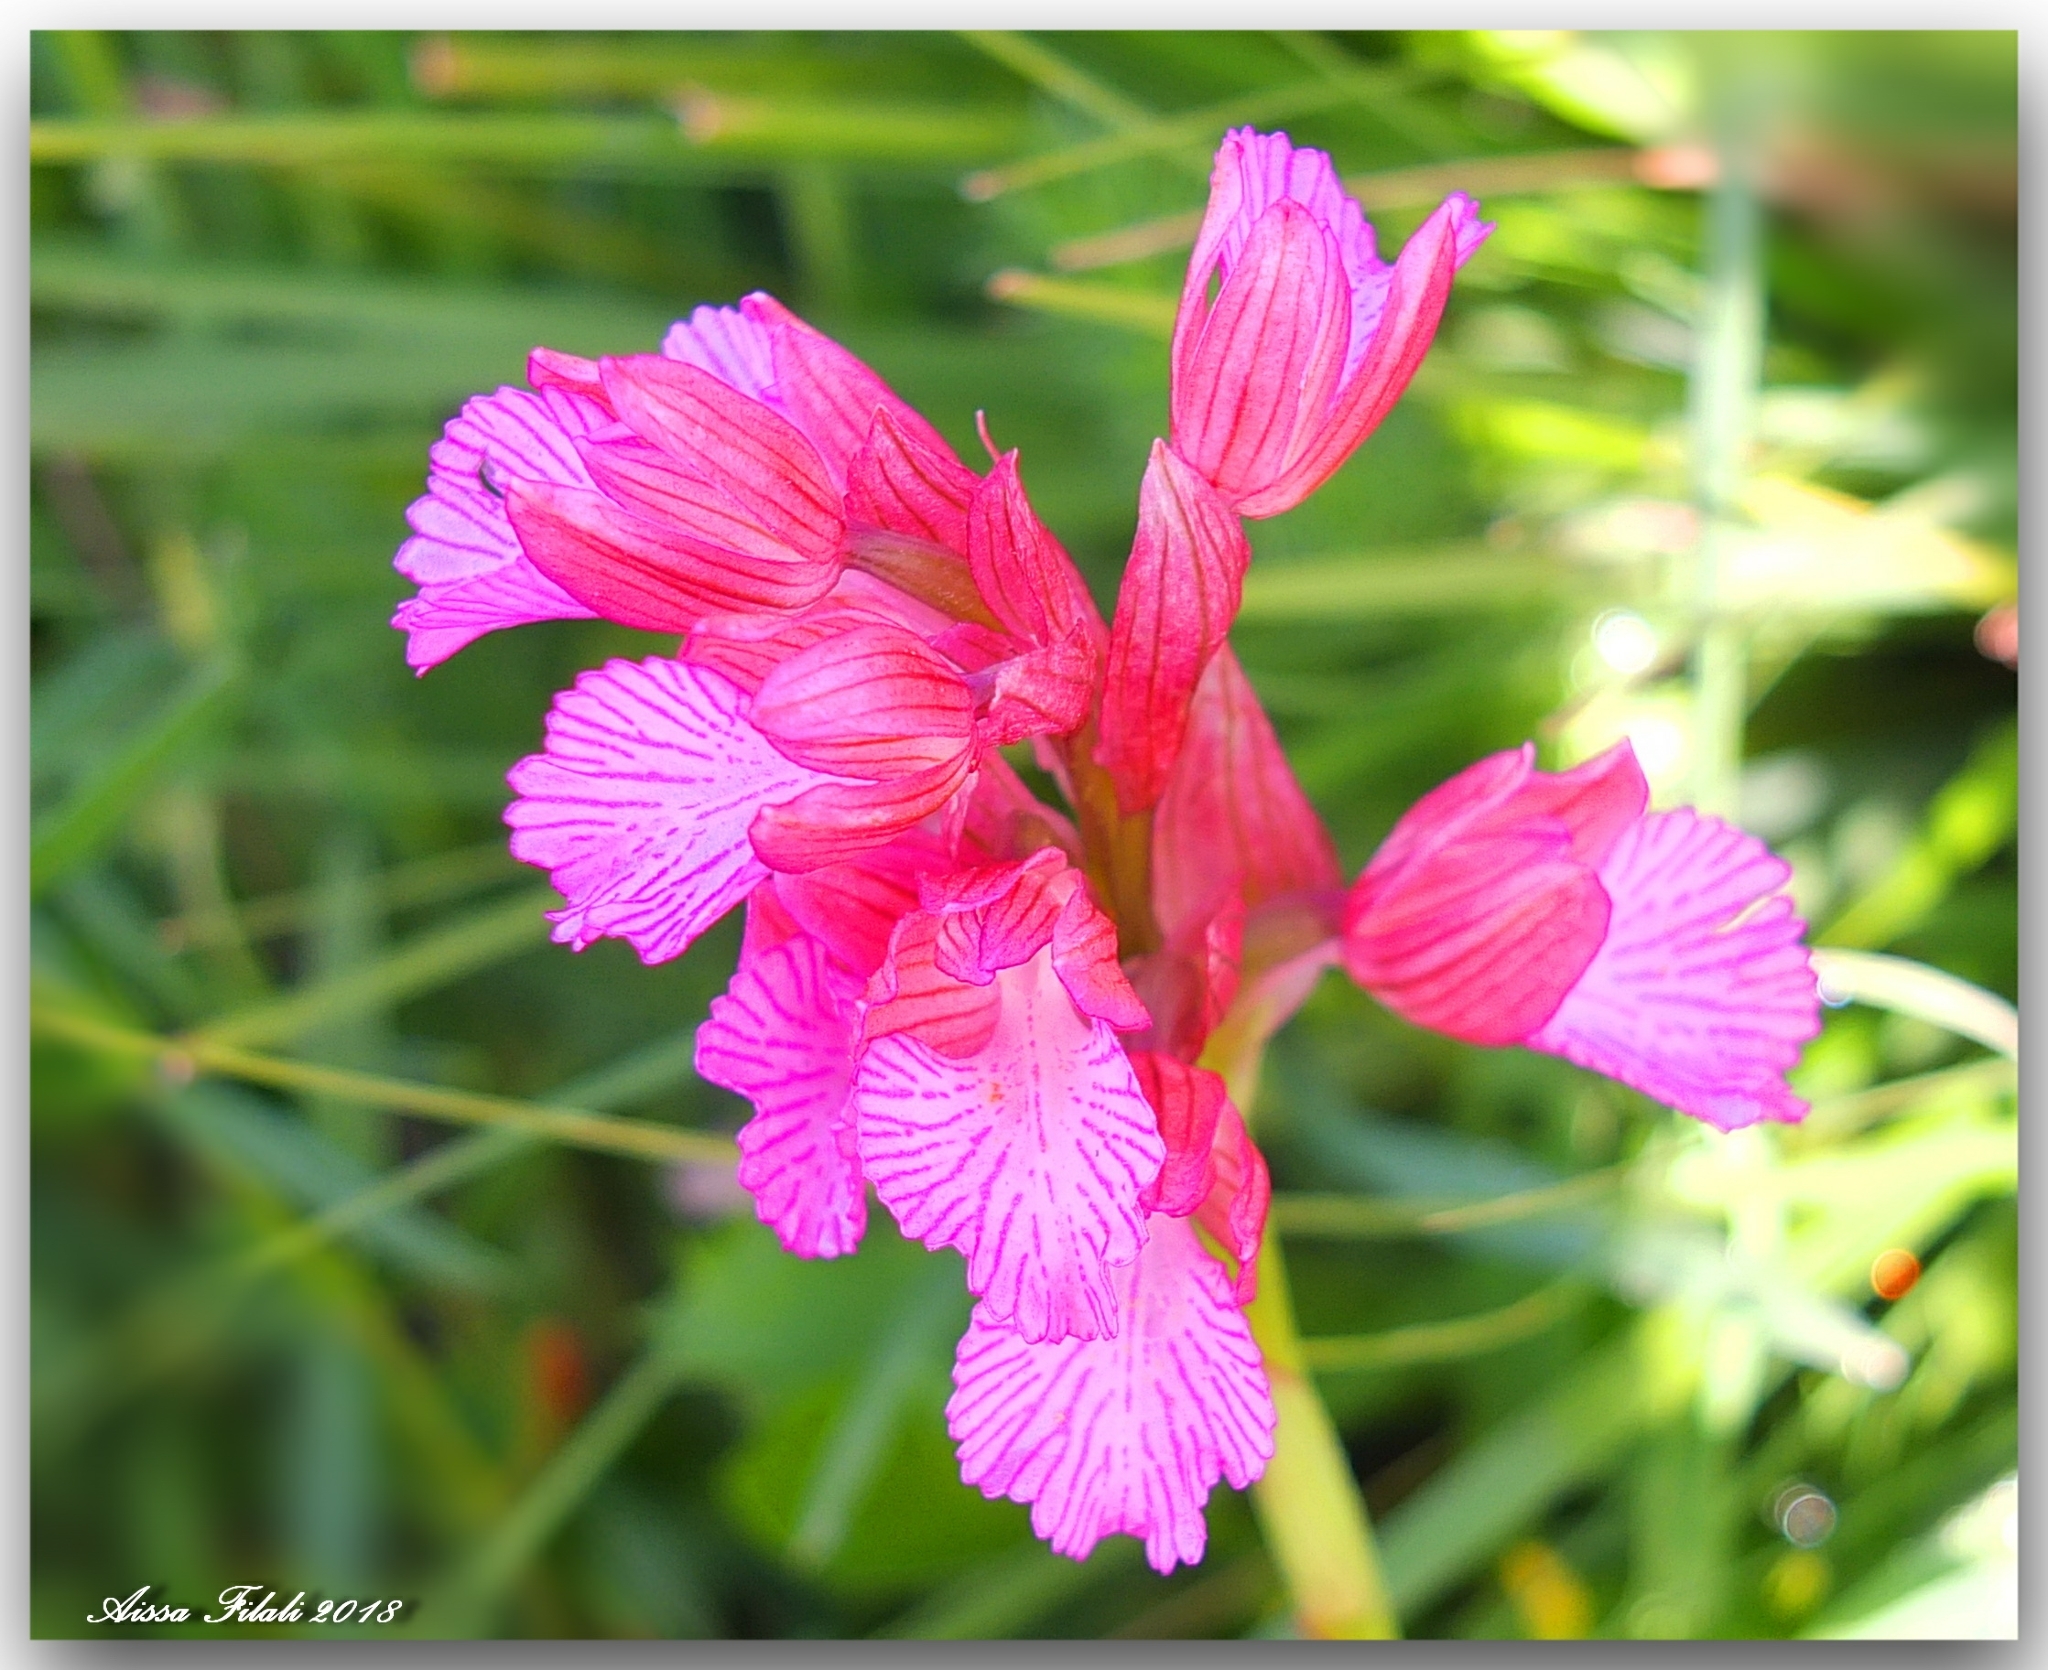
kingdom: Plantae
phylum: Tracheophyta
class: Liliopsida
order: Asparagales
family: Orchidaceae
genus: Anacamptis
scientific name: Anacamptis papilionacea
